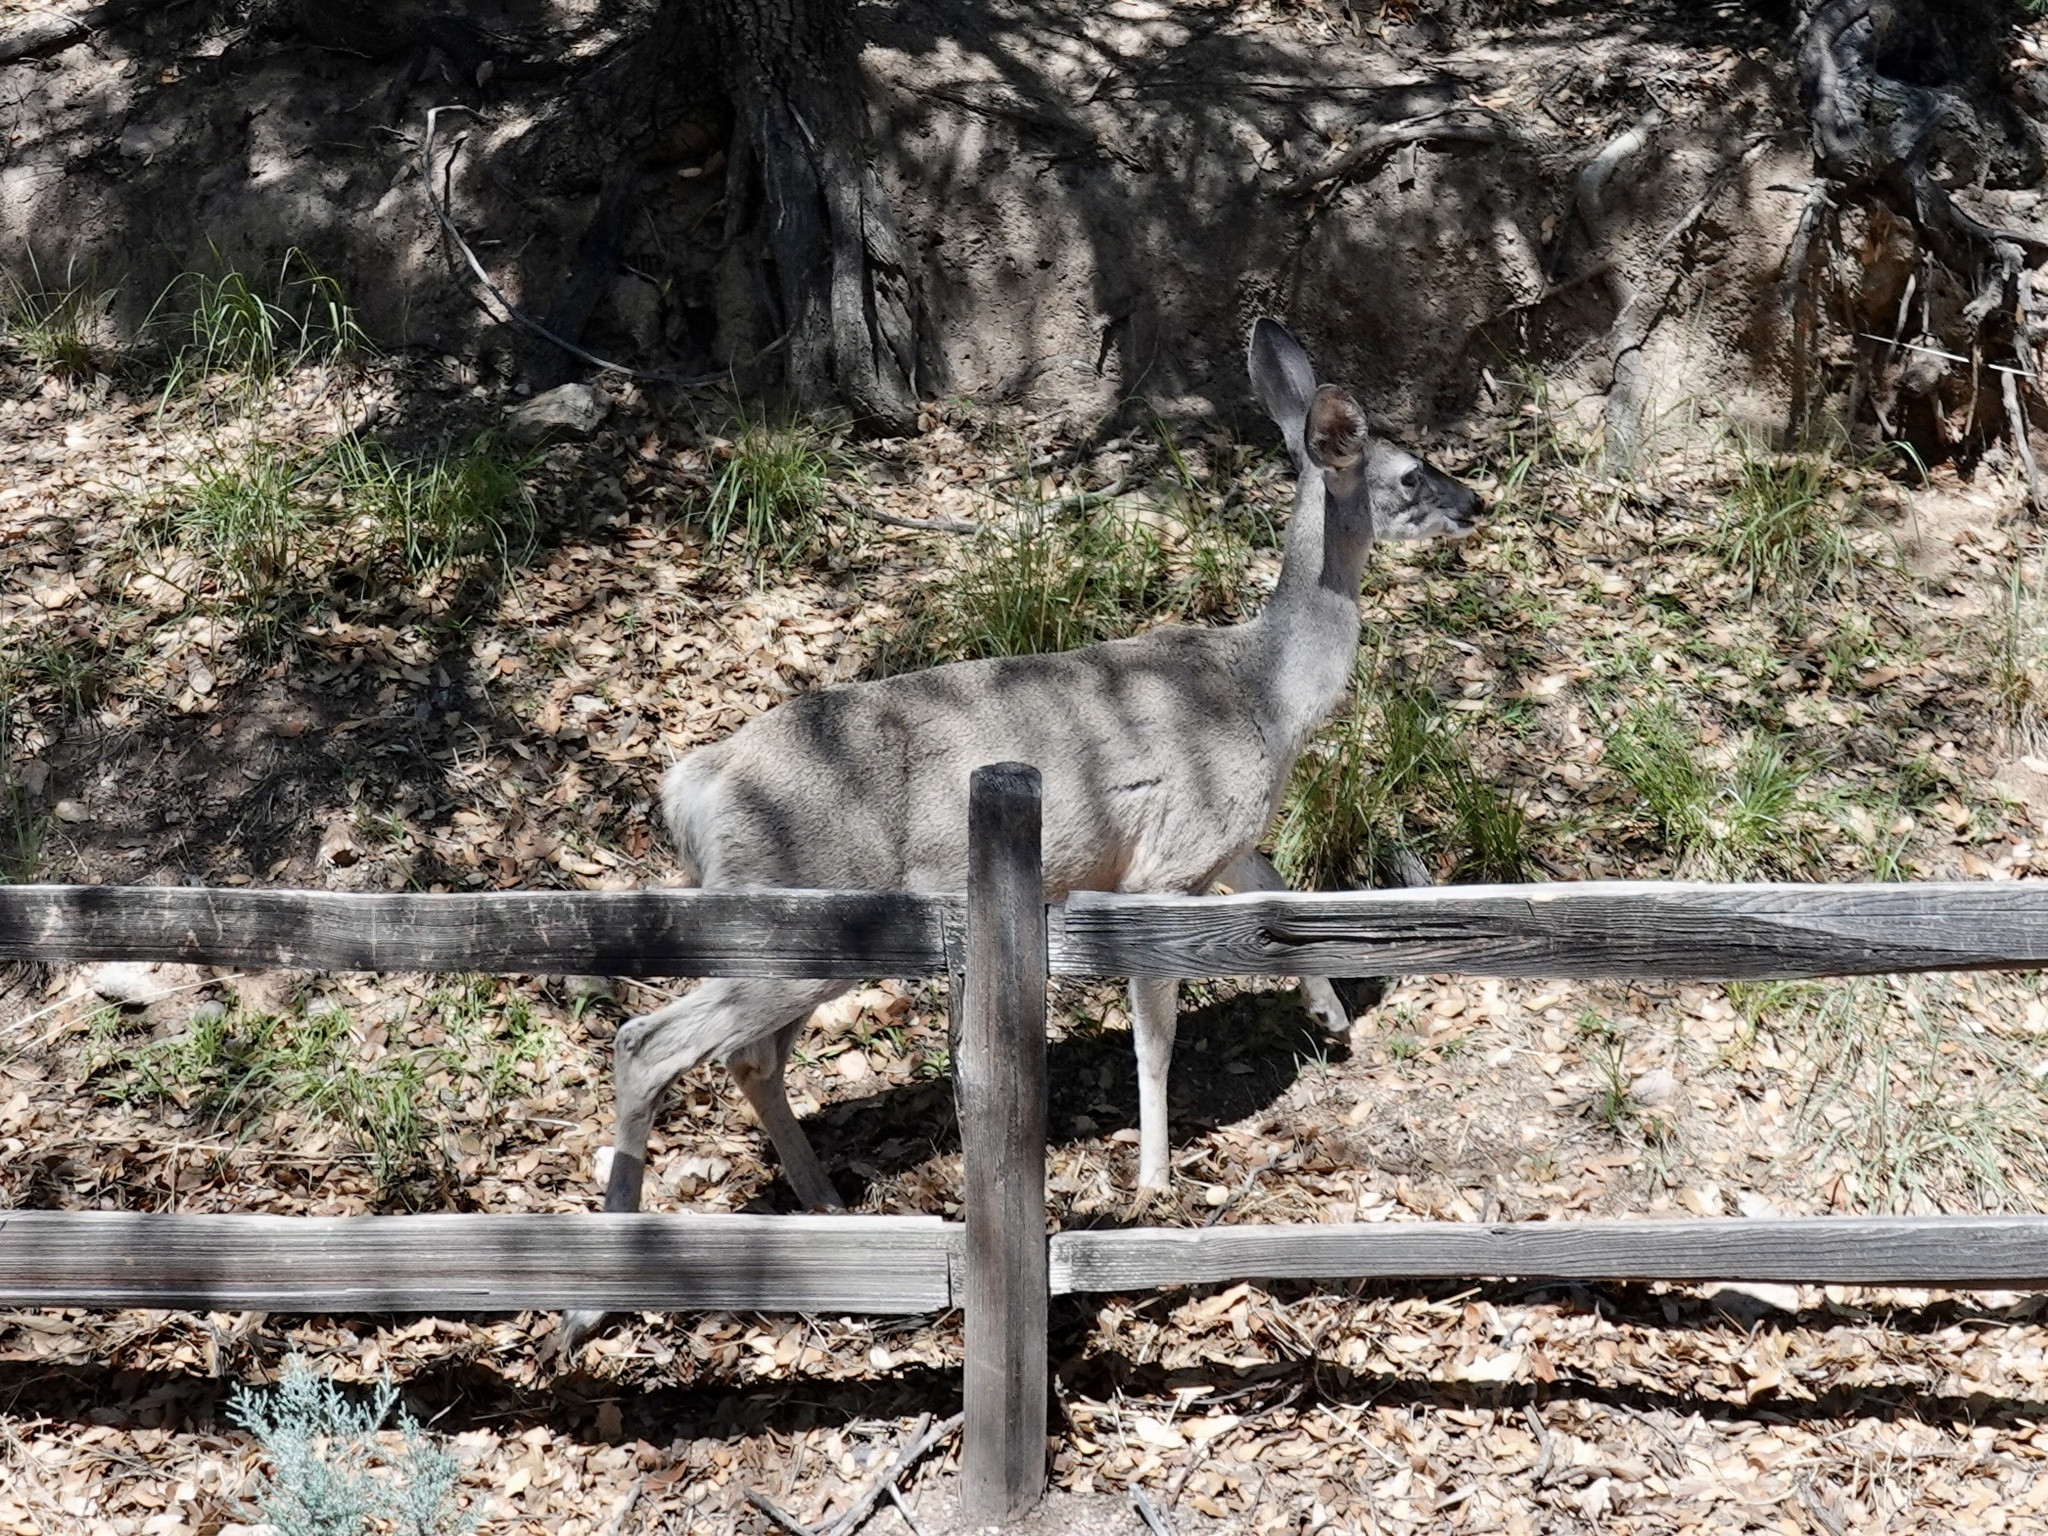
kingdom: Animalia
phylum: Chordata
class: Mammalia
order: Artiodactyla
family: Cervidae
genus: Odocoileus
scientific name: Odocoileus virginianus
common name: White-tailed deer
